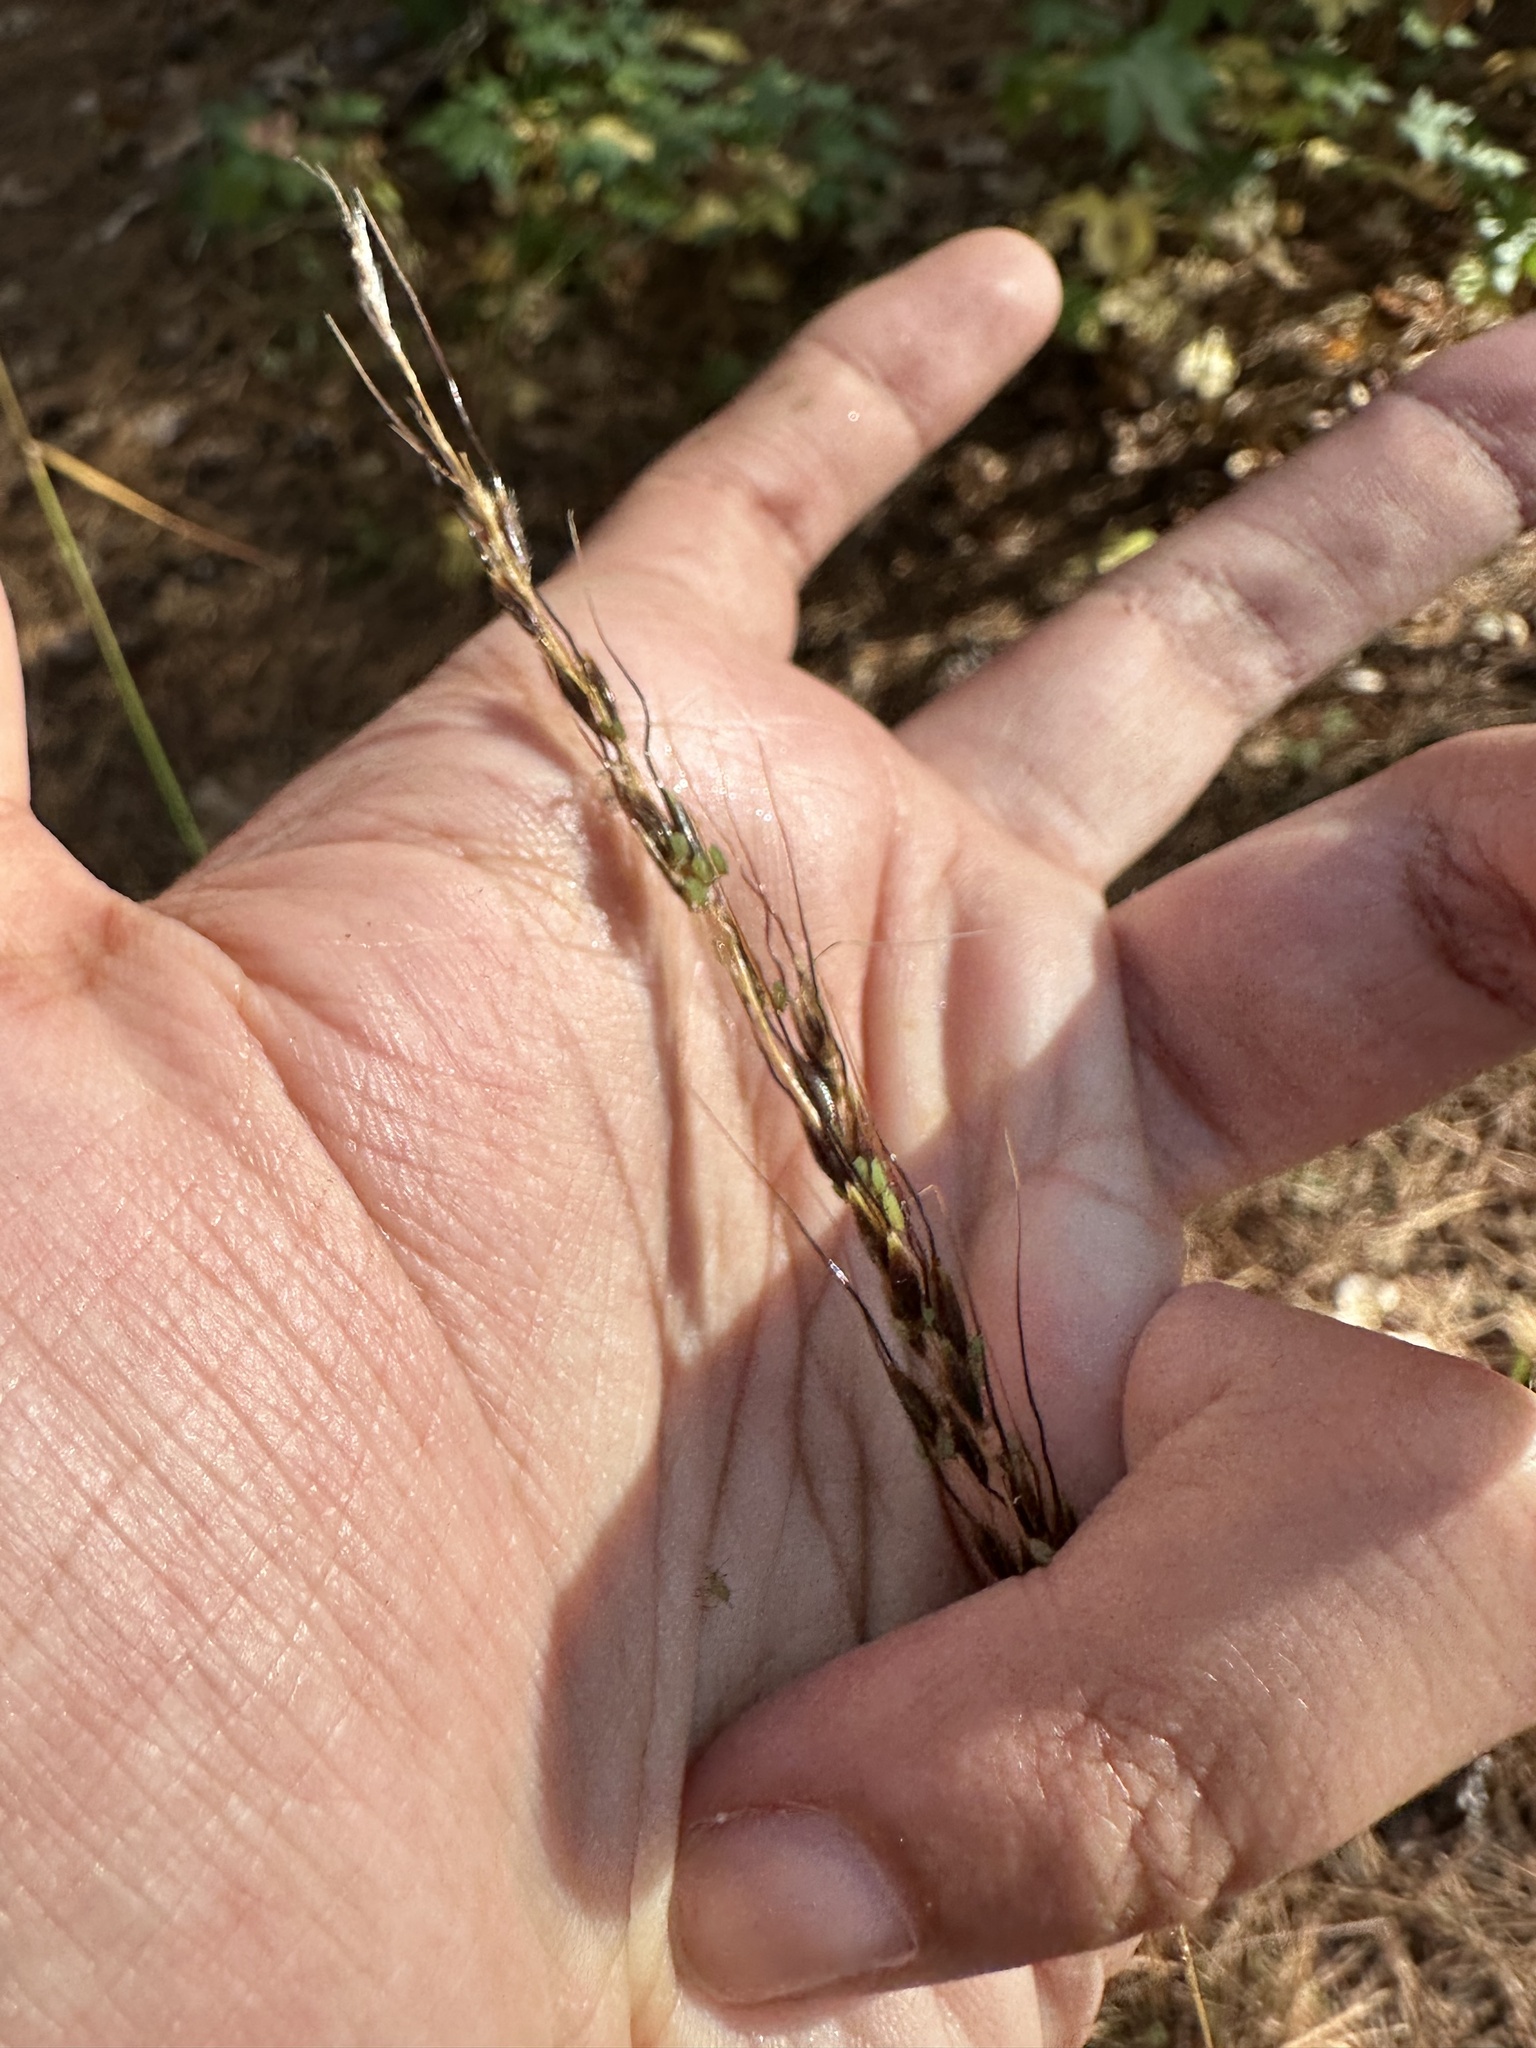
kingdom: Plantae
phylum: Tracheophyta
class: Liliopsida
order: Poales
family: Poaceae
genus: Sorghastrum
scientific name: Sorghastrum elliottii
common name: Slender indian grass
